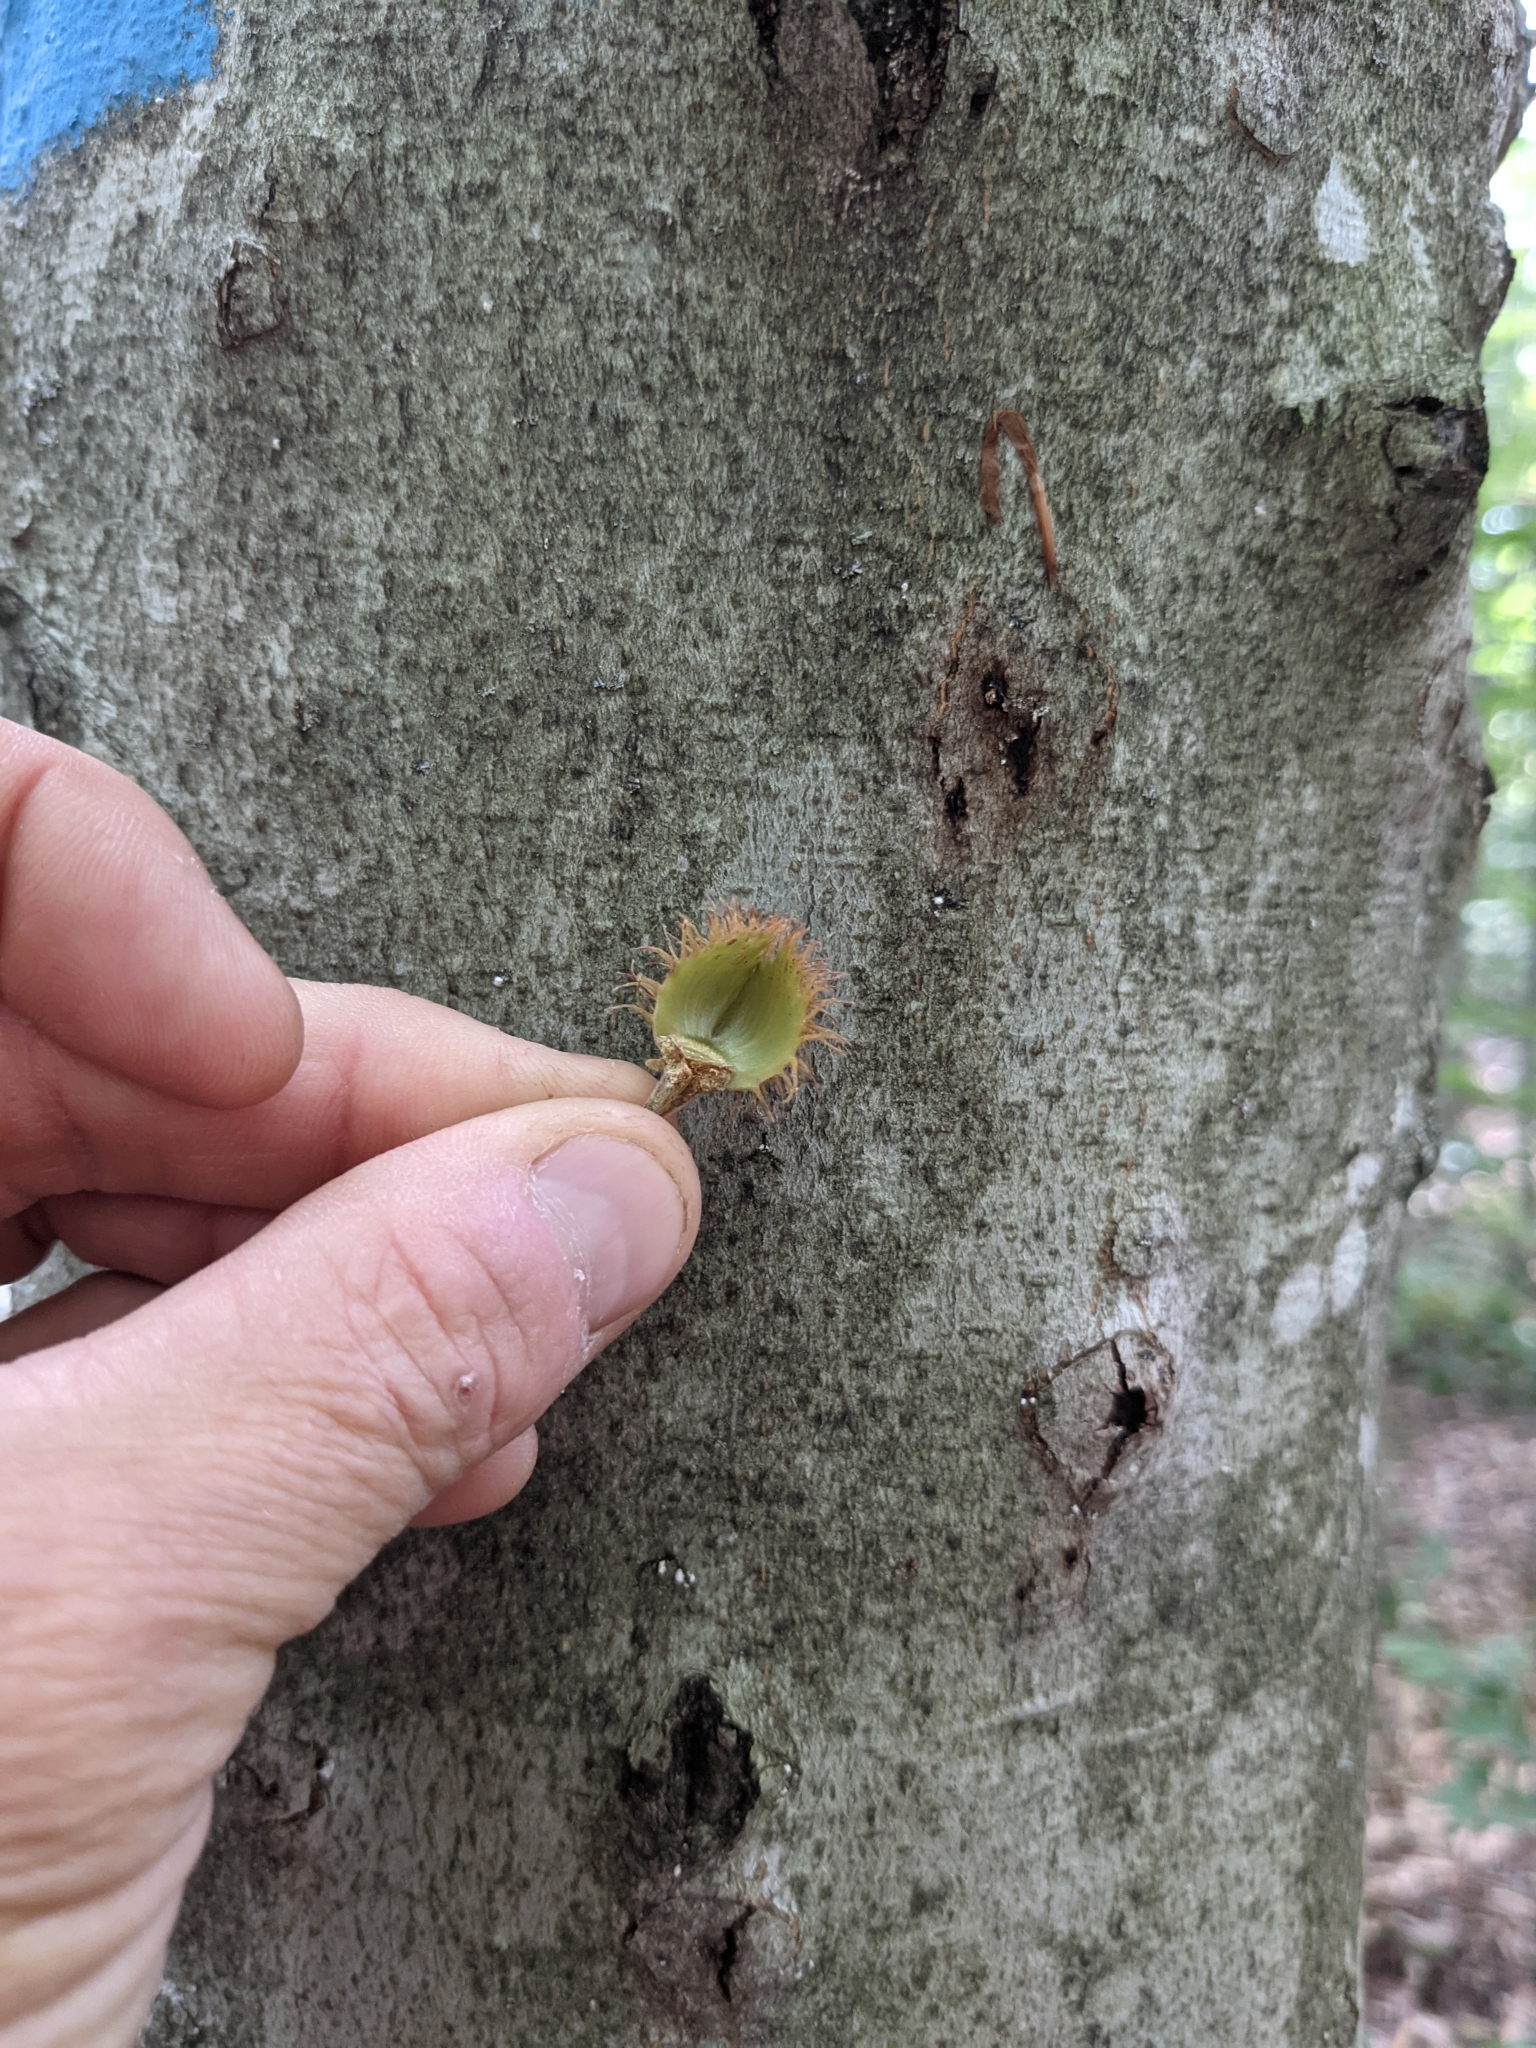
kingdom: Plantae
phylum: Tracheophyta
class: Magnoliopsida
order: Fagales
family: Fagaceae
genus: Fagus
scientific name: Fagus grandifolia
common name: American beech
